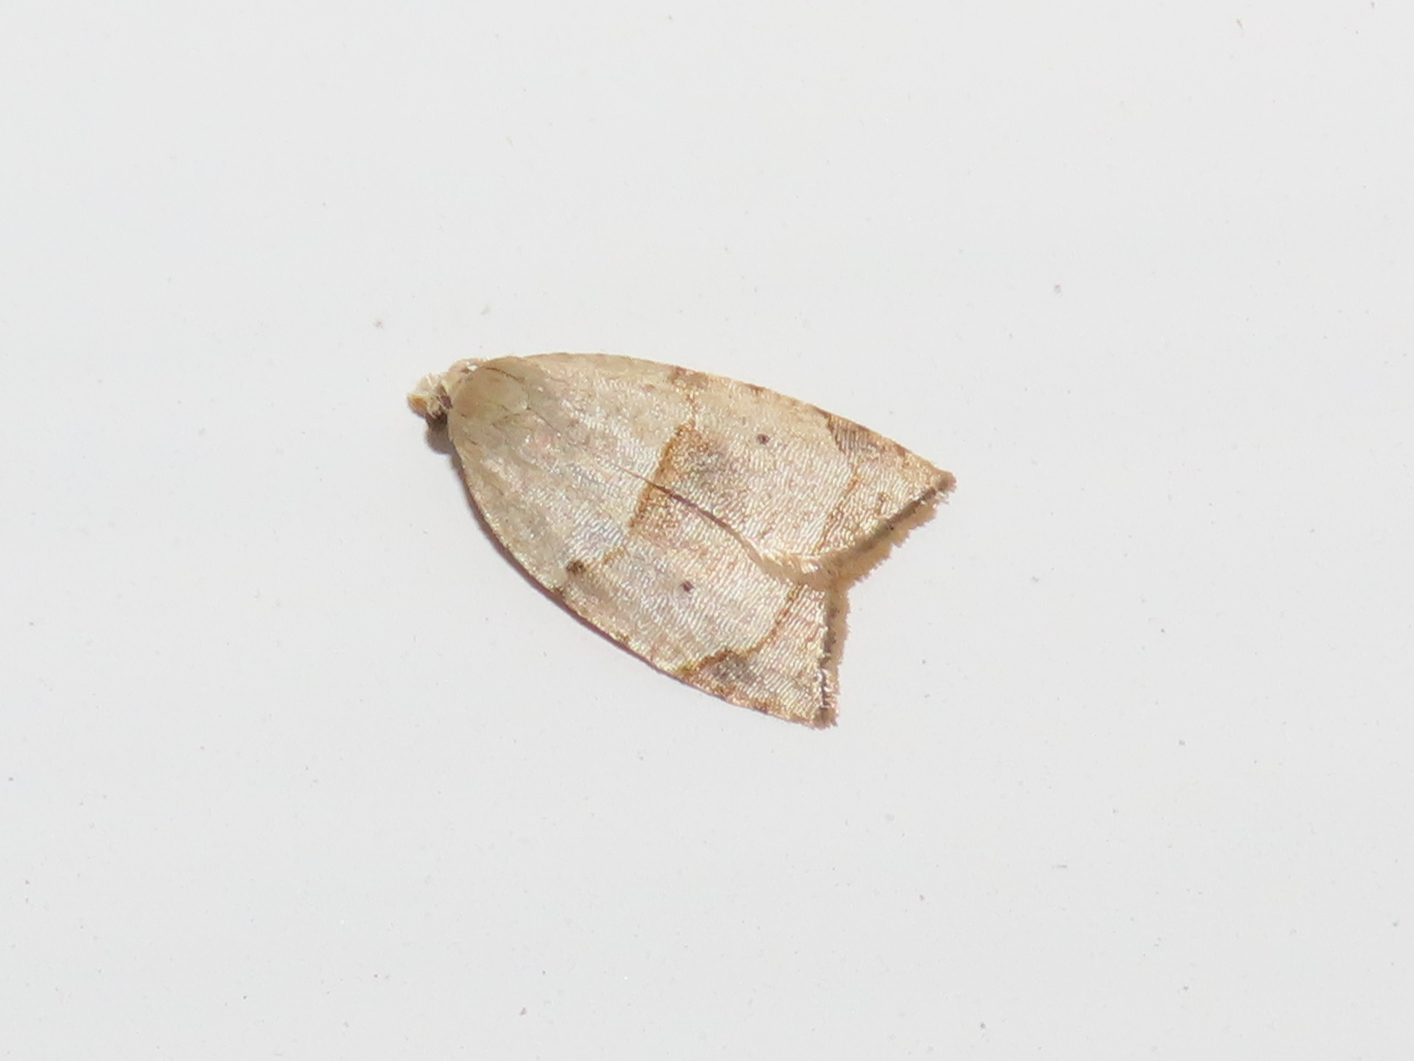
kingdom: Animalia
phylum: Arthropoda
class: Insecta
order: Lepidoptera
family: Tortricidae
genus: Coelostathma
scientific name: Coelostathma discopunctana
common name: Batman moth
